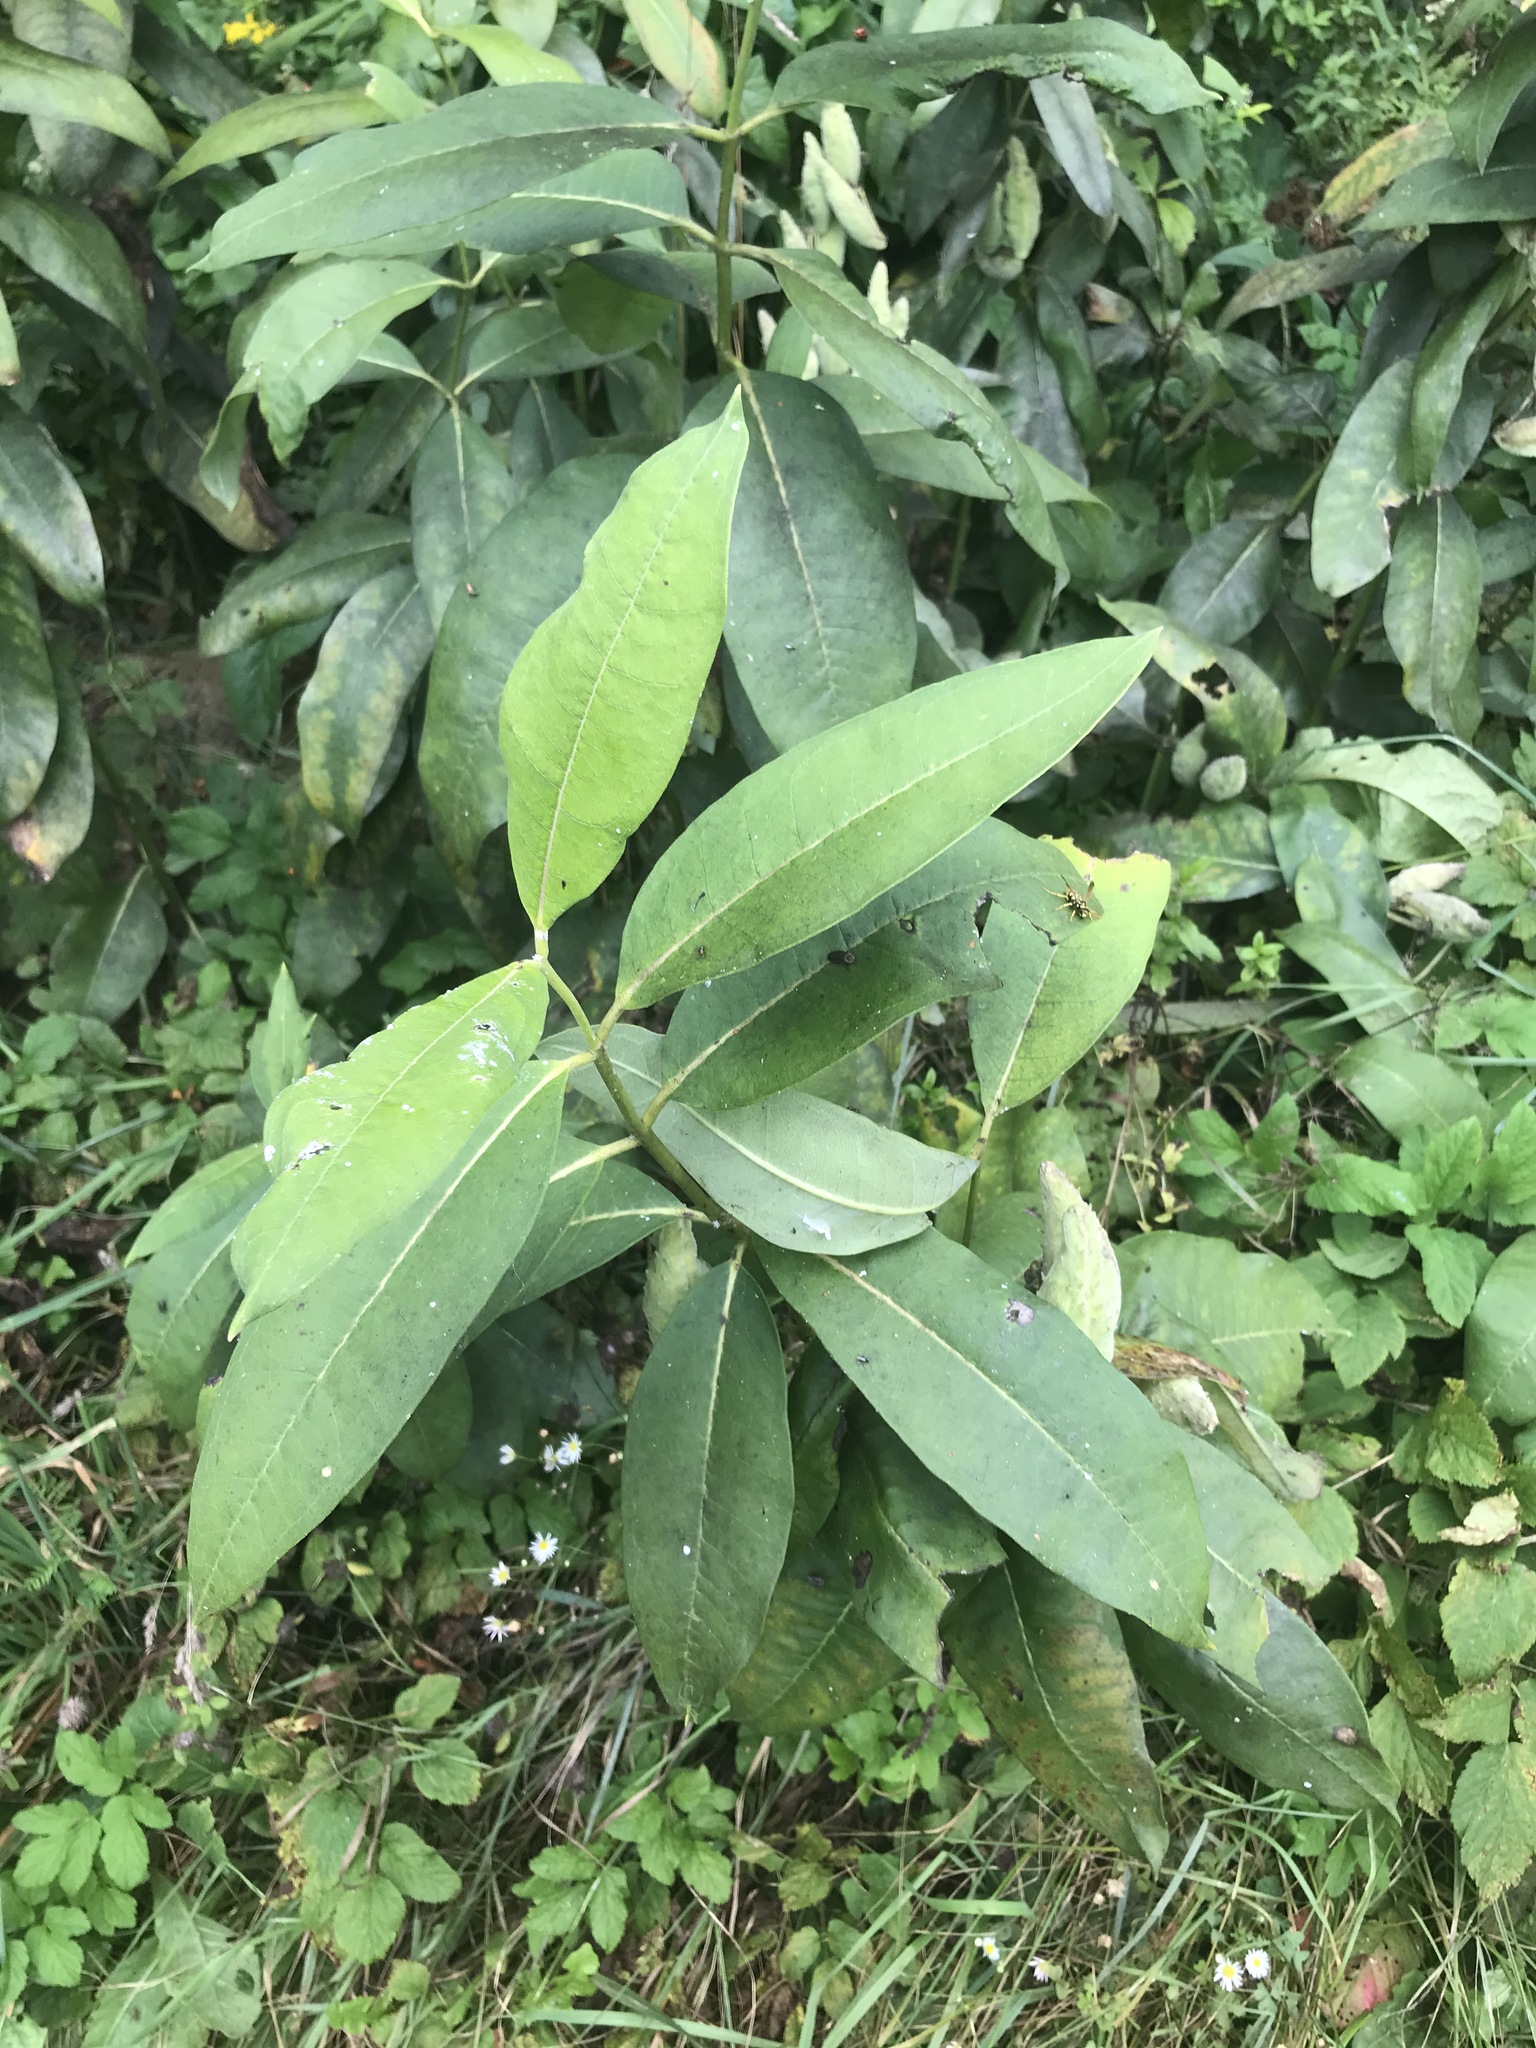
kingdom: Plantae
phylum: Tracheophyta
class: Magnoliopsida
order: Gentianales
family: Apocynaceae
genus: Asclepias
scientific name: Asclepias syriaca
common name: Common milkweed
